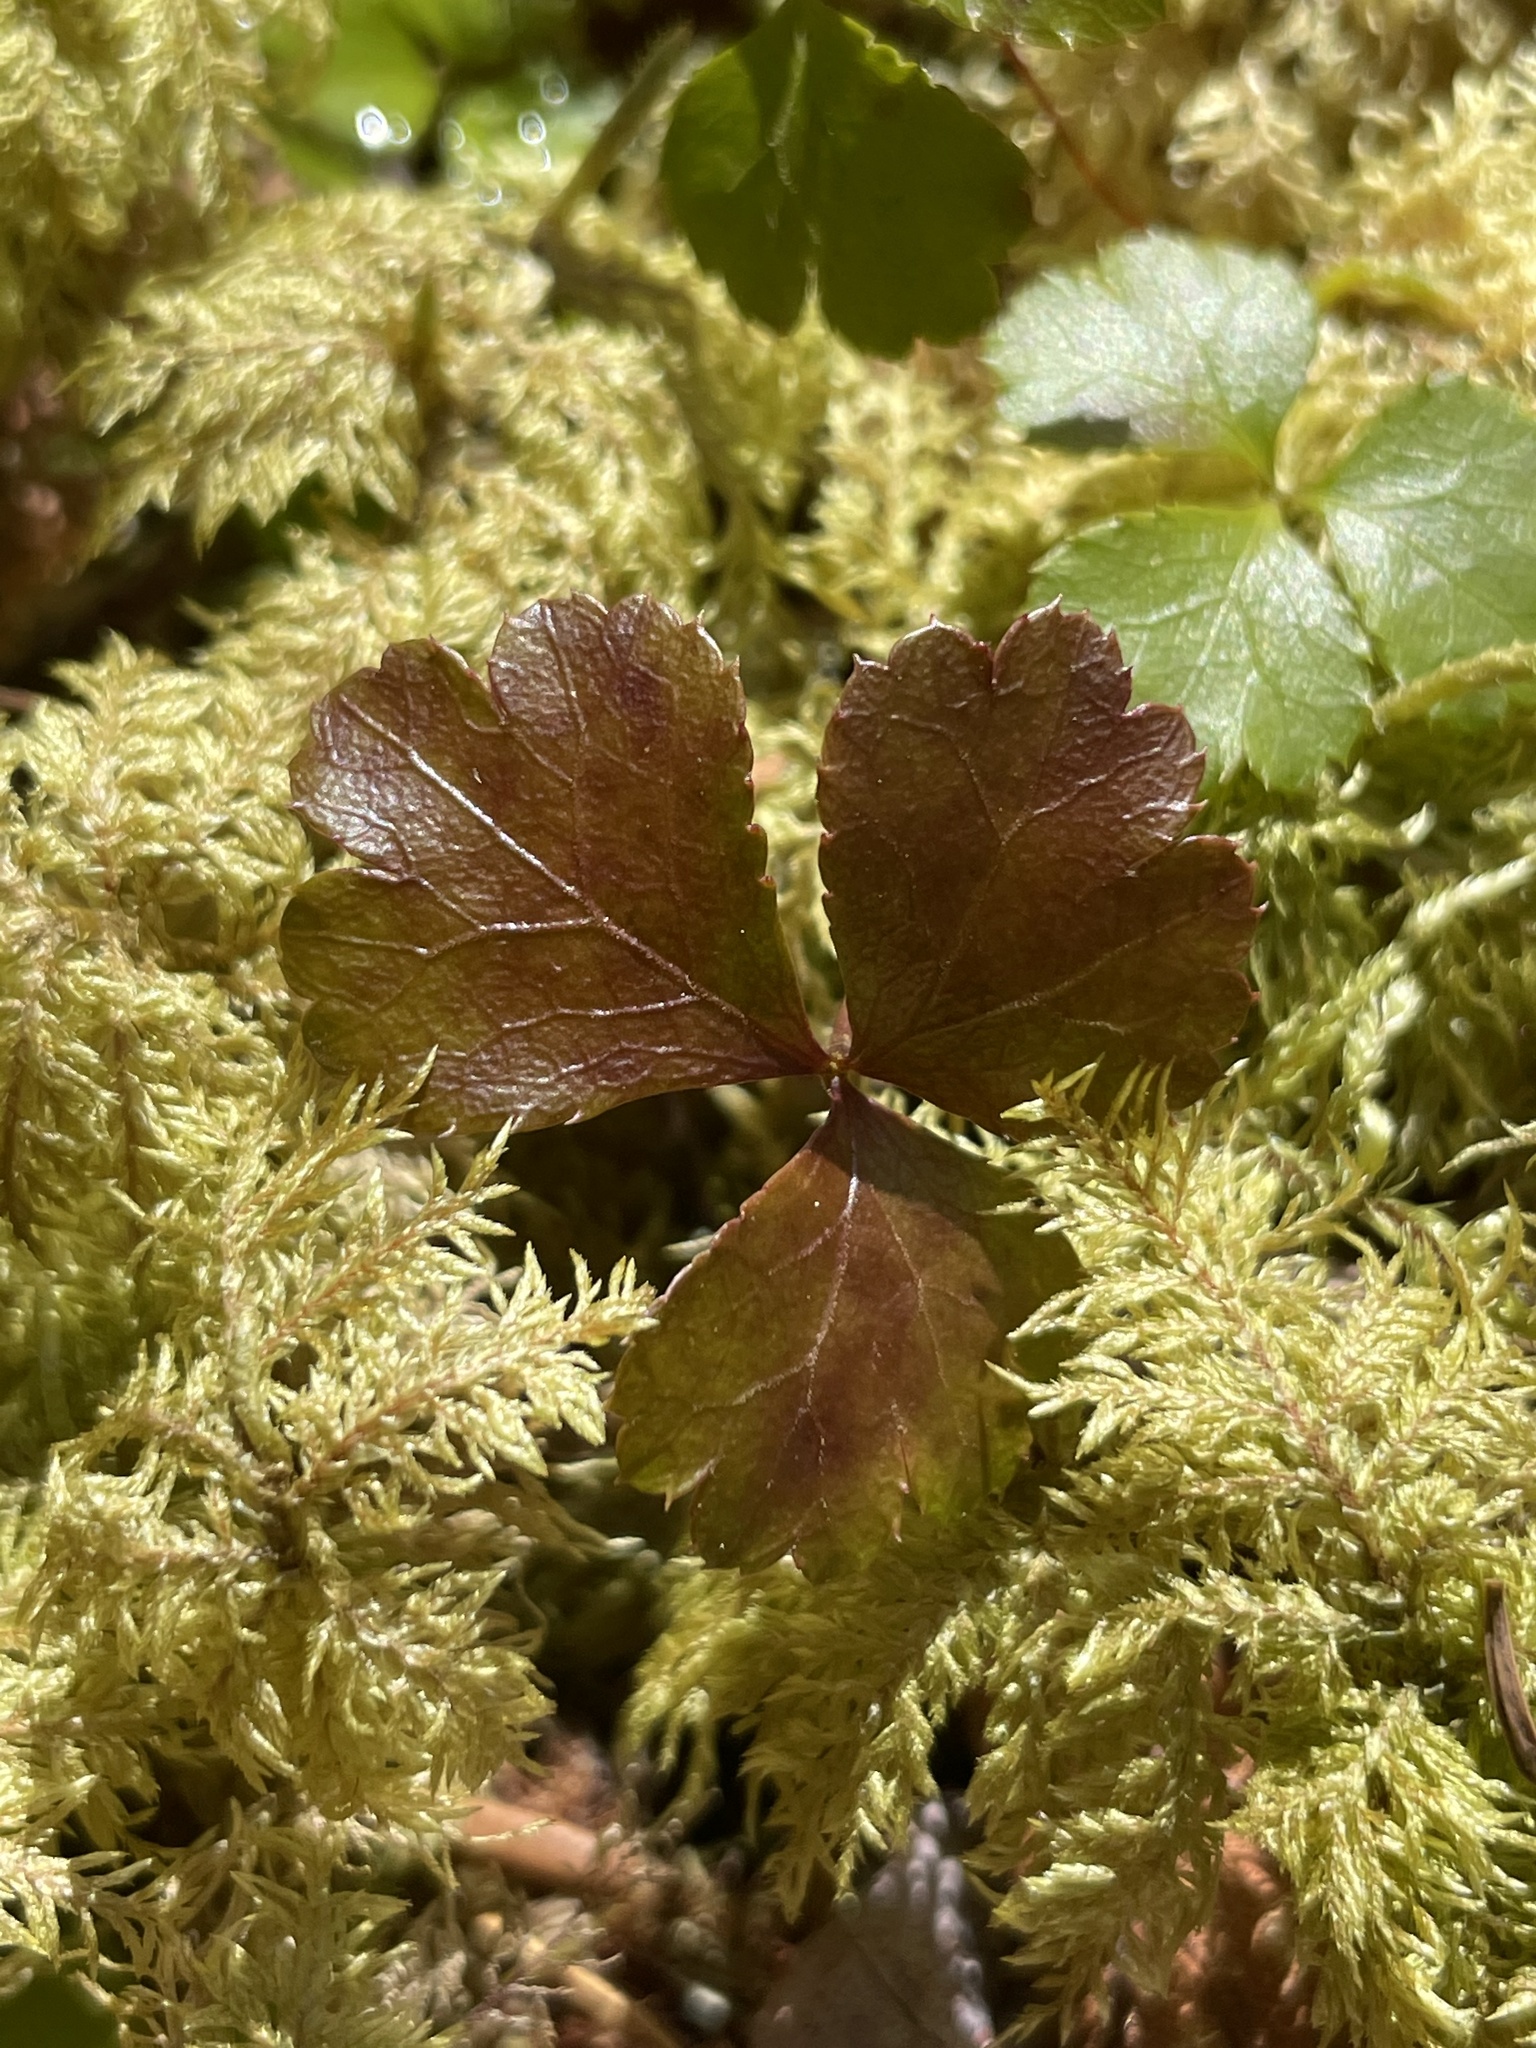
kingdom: Plantae
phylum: Tracheophyta
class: Magnoliopsida
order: Ranunculales
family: Ranunculaceae
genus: Coptis
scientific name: Coptis trifolia
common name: Canker-root
